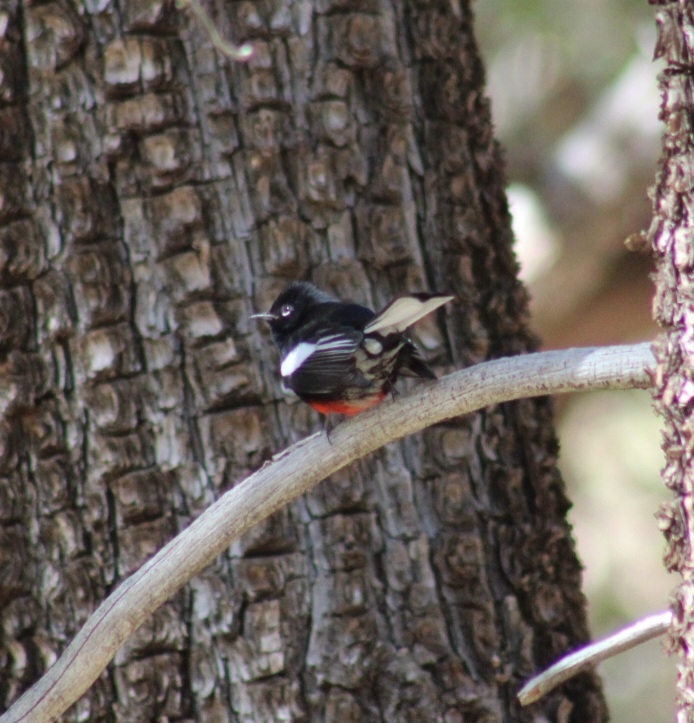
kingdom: Animalia
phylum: Chordata
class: Aves
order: Passeriformes
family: Parulidae
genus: Myioborus
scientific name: Myioborus pictus
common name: Painted whitestart
